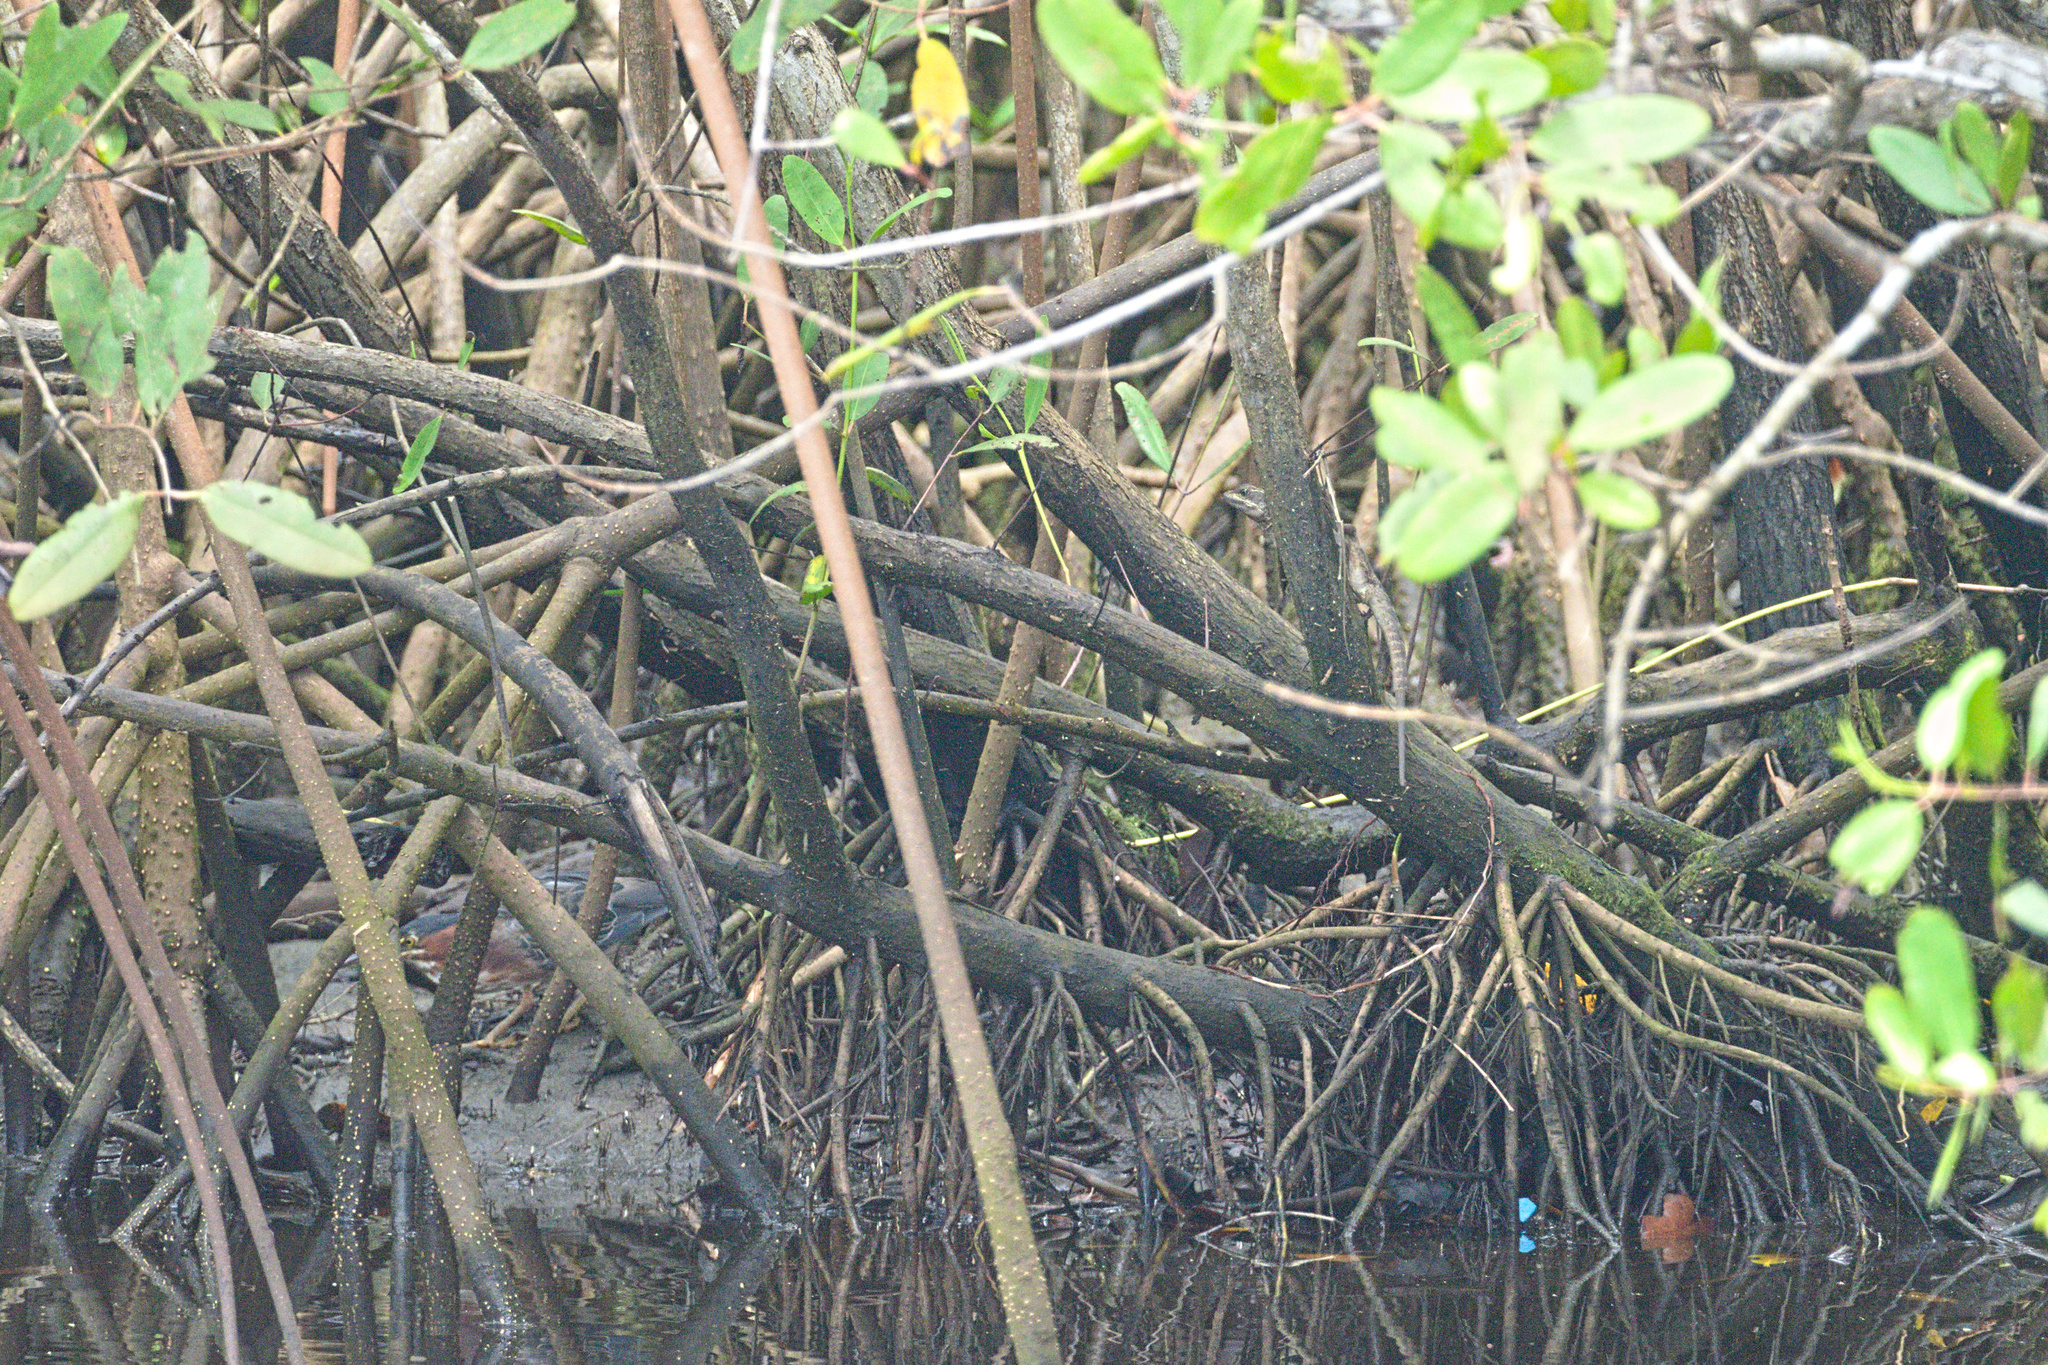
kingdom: Animalia
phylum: Chordata
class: Squamata
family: Corytophanidae
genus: Basiliscus
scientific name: Basiliscus basiliscus
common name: Common basilisk
